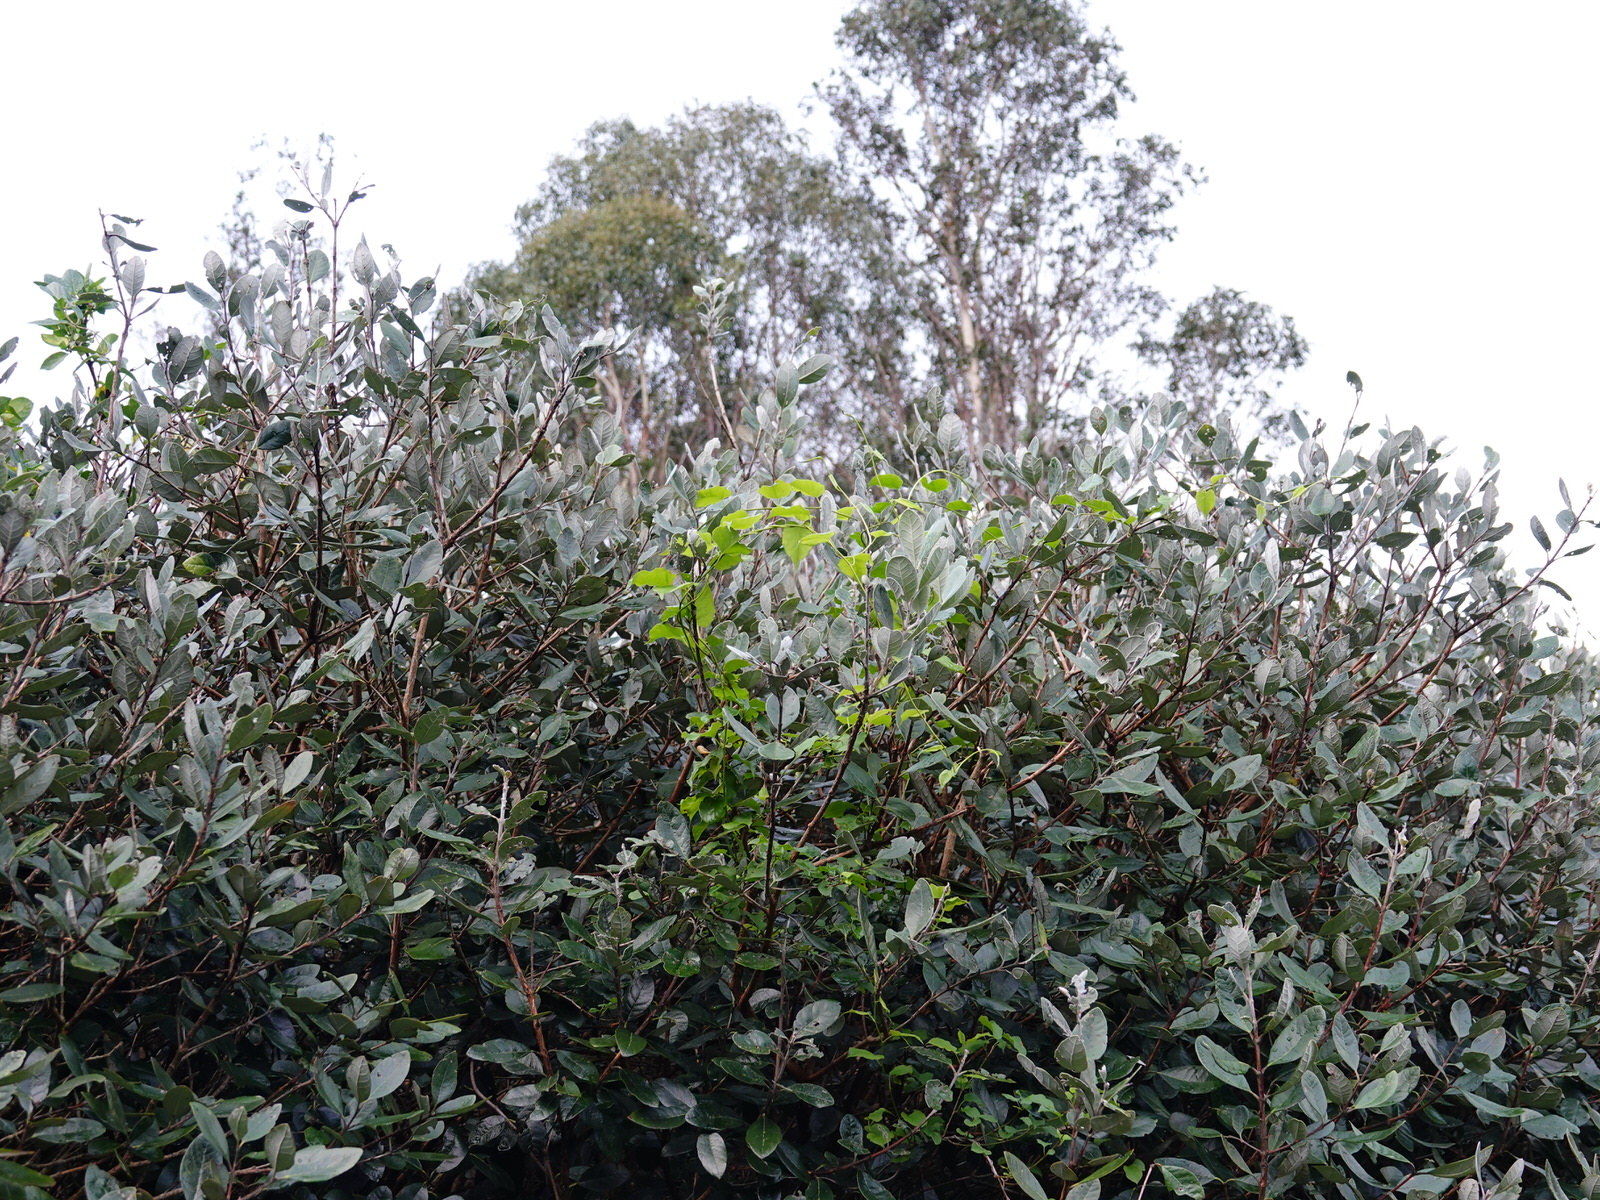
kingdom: Plantae
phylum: Tracheophyta
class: Magnoliopsida
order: Caryophyllales
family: Polygonaceae
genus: Muehlenbeckia
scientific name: Muehlenbeckia australis
